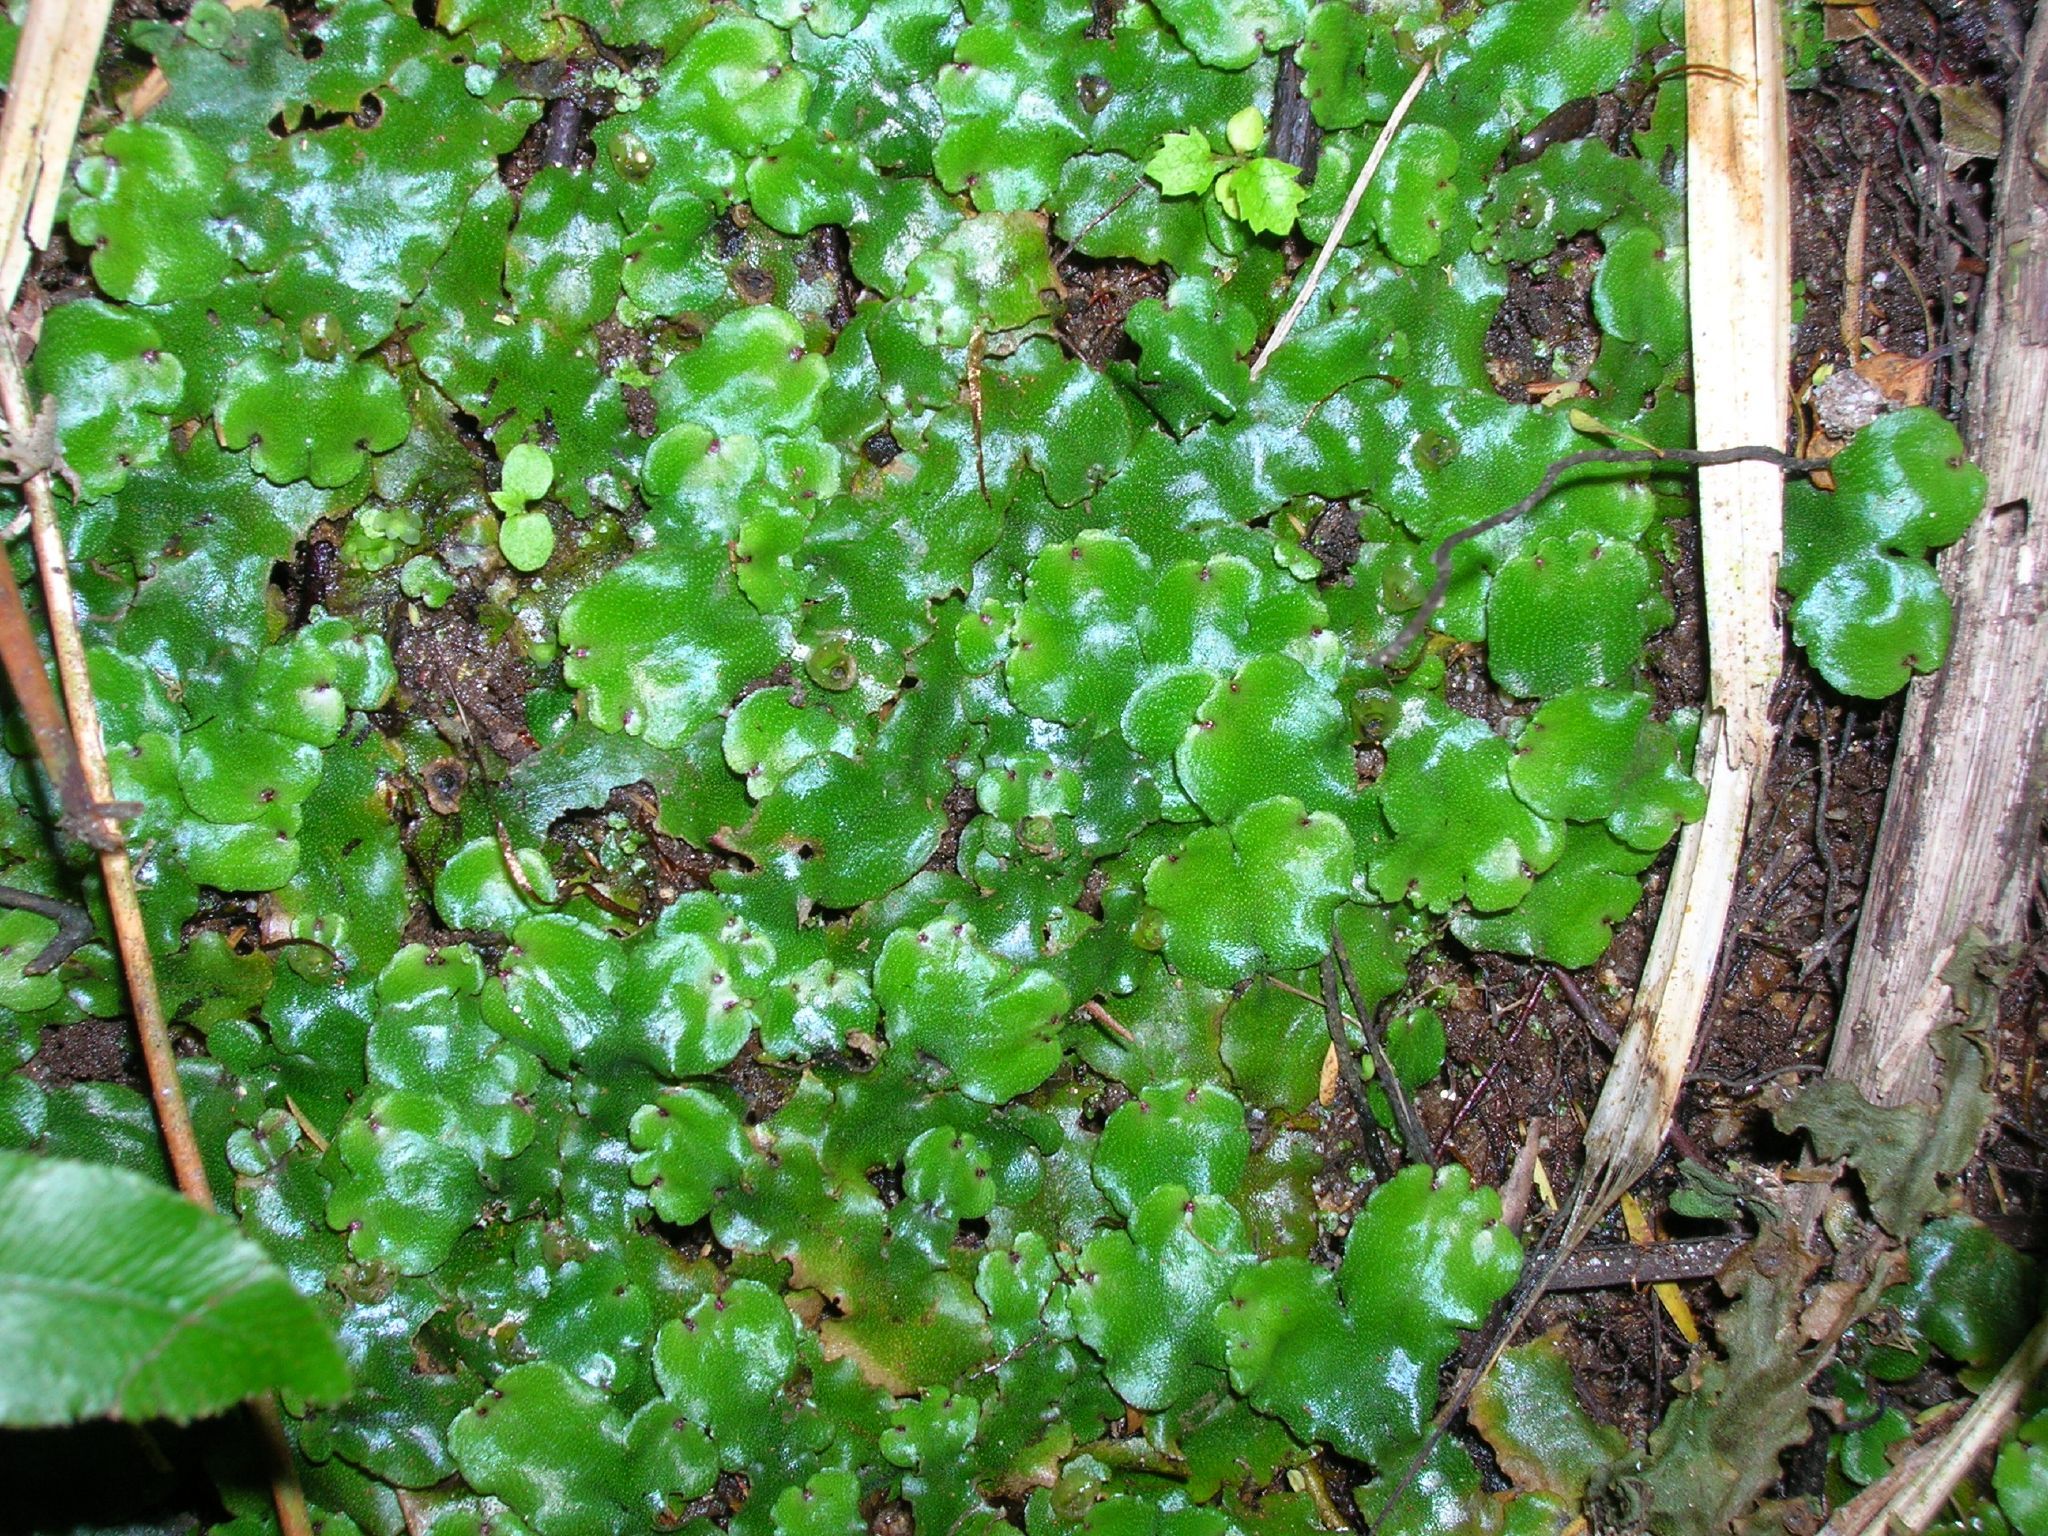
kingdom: Plantae
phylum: Marchantiophyta
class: Marchantiopsida
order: Marchantiales
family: Marchantiaceae
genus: Marchantia
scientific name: Marchantia berteroana
